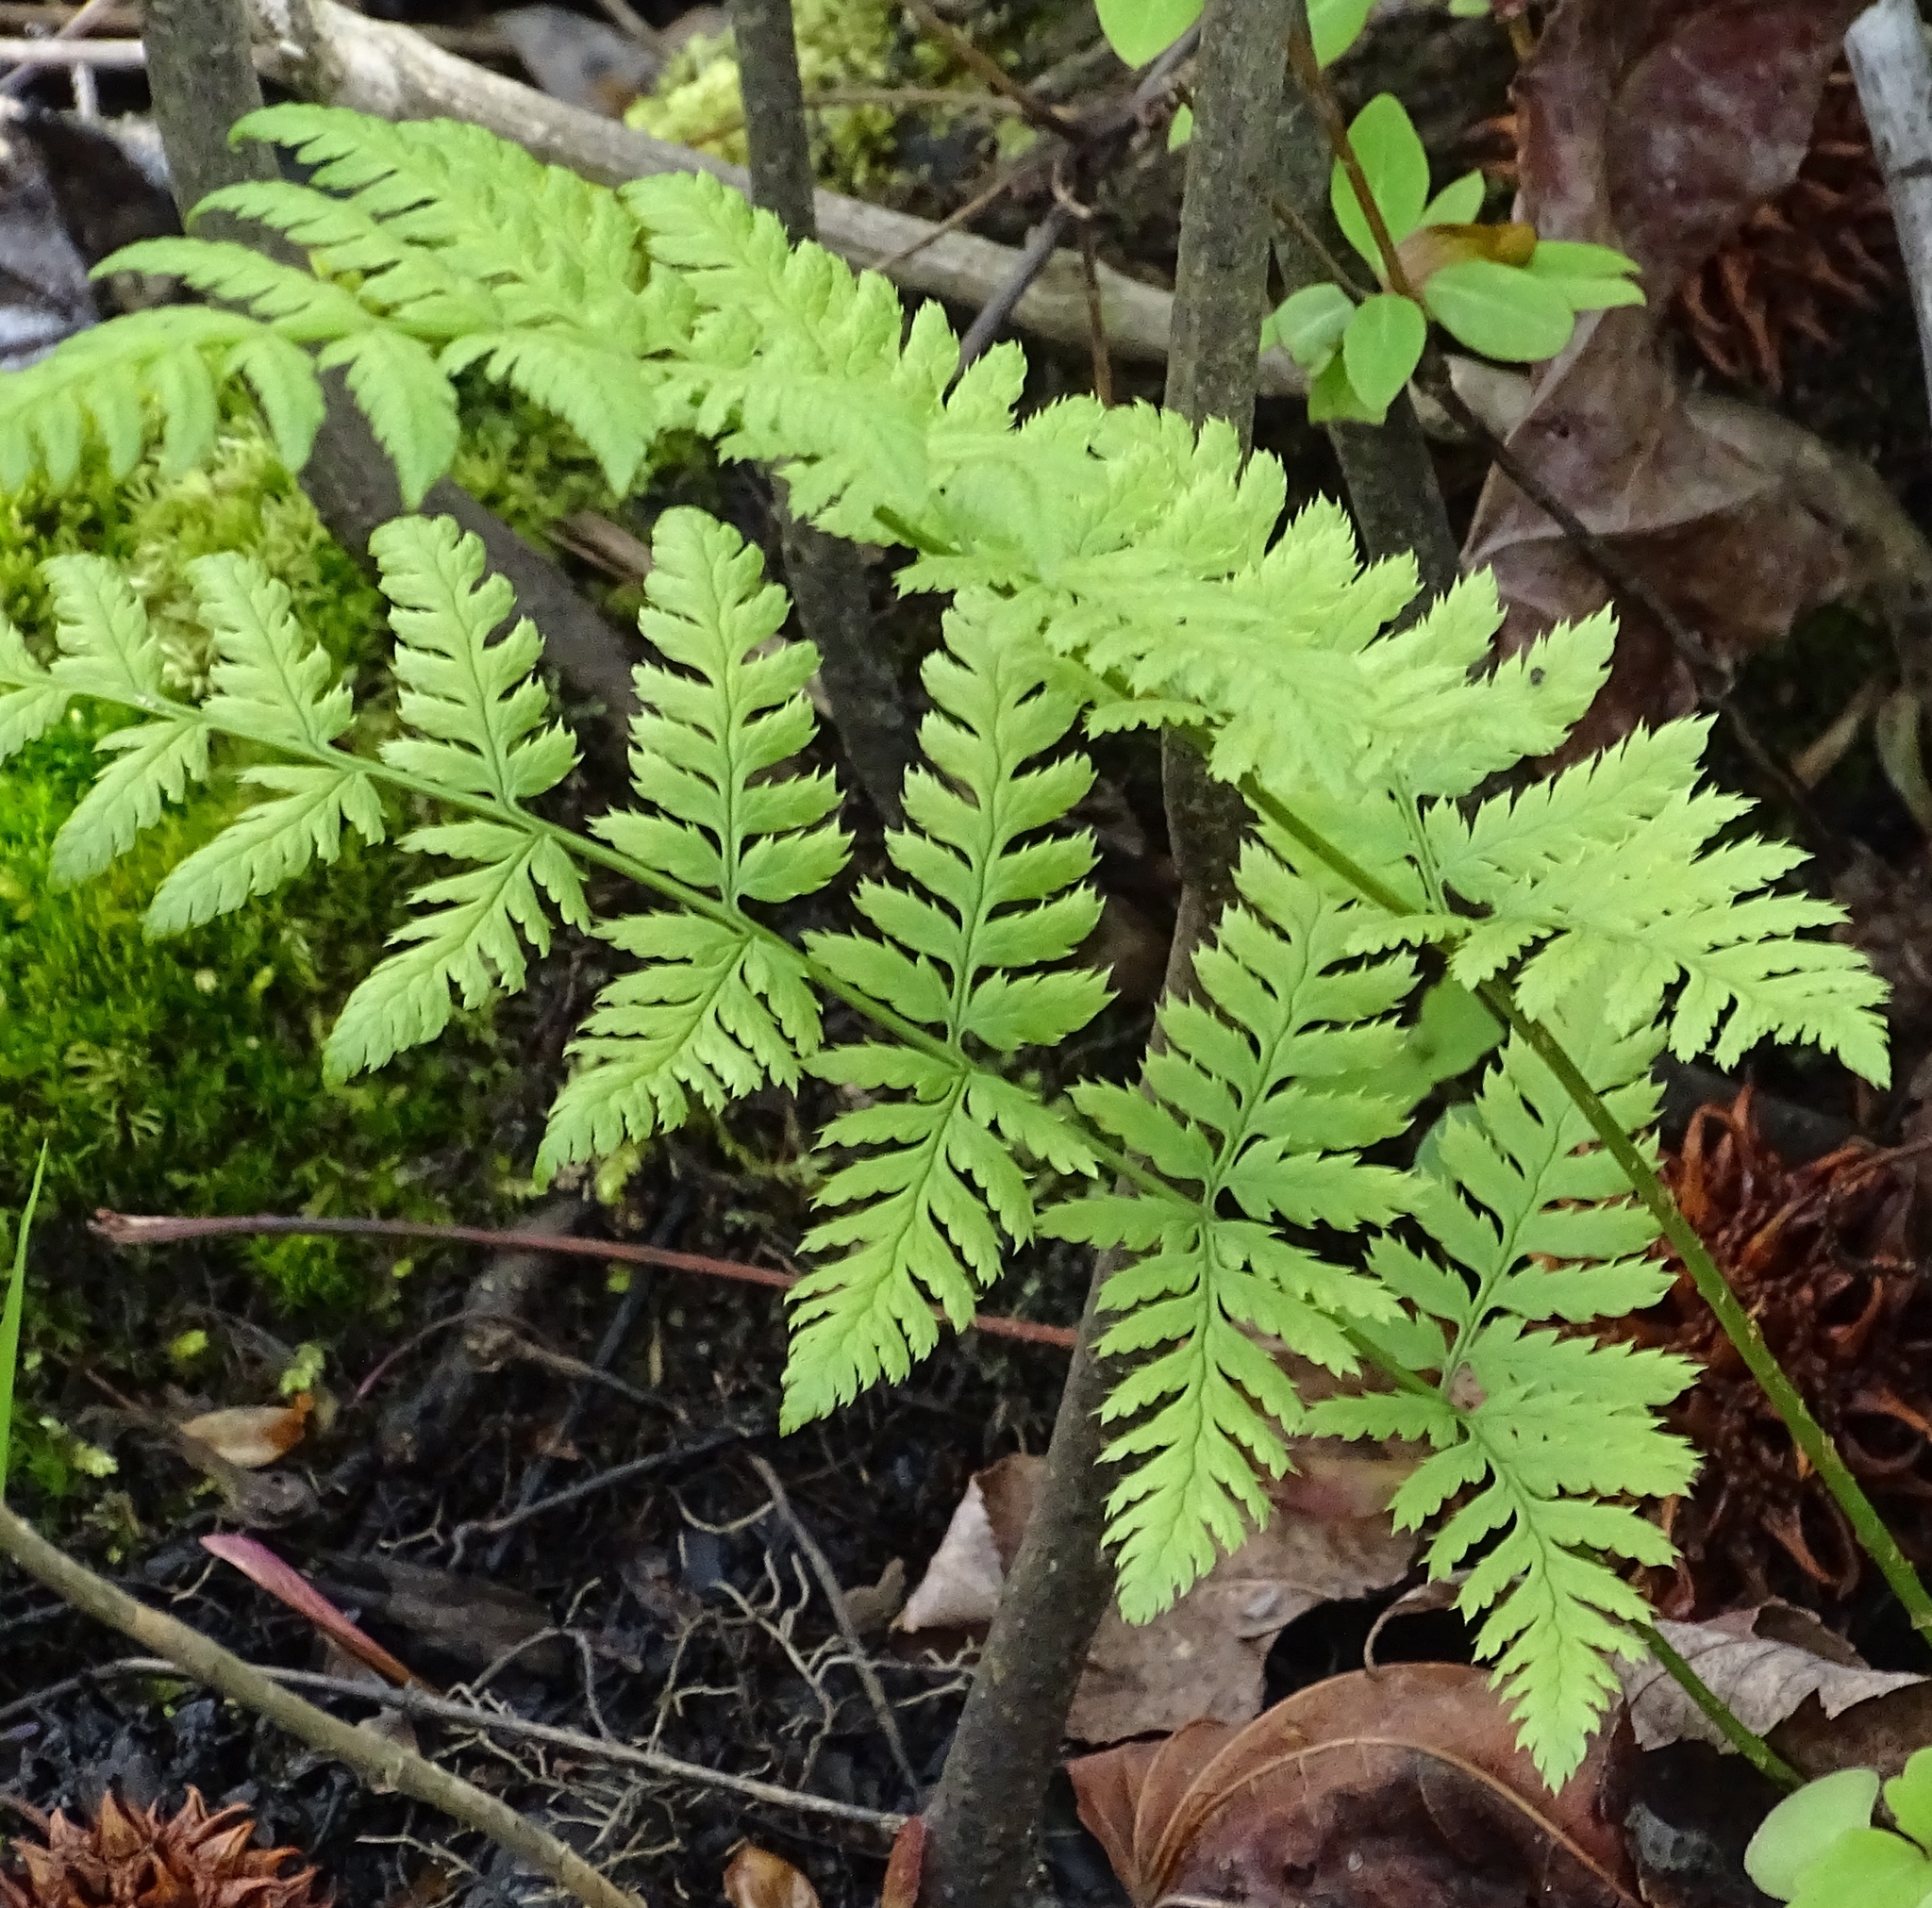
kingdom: Plantae
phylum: Tracheophyta
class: Polypodiopsida
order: Polypodiales
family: Dryopteridaceae
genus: Dryopteris
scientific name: Dryopteris carthusiana
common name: Narrow buckler-fern
